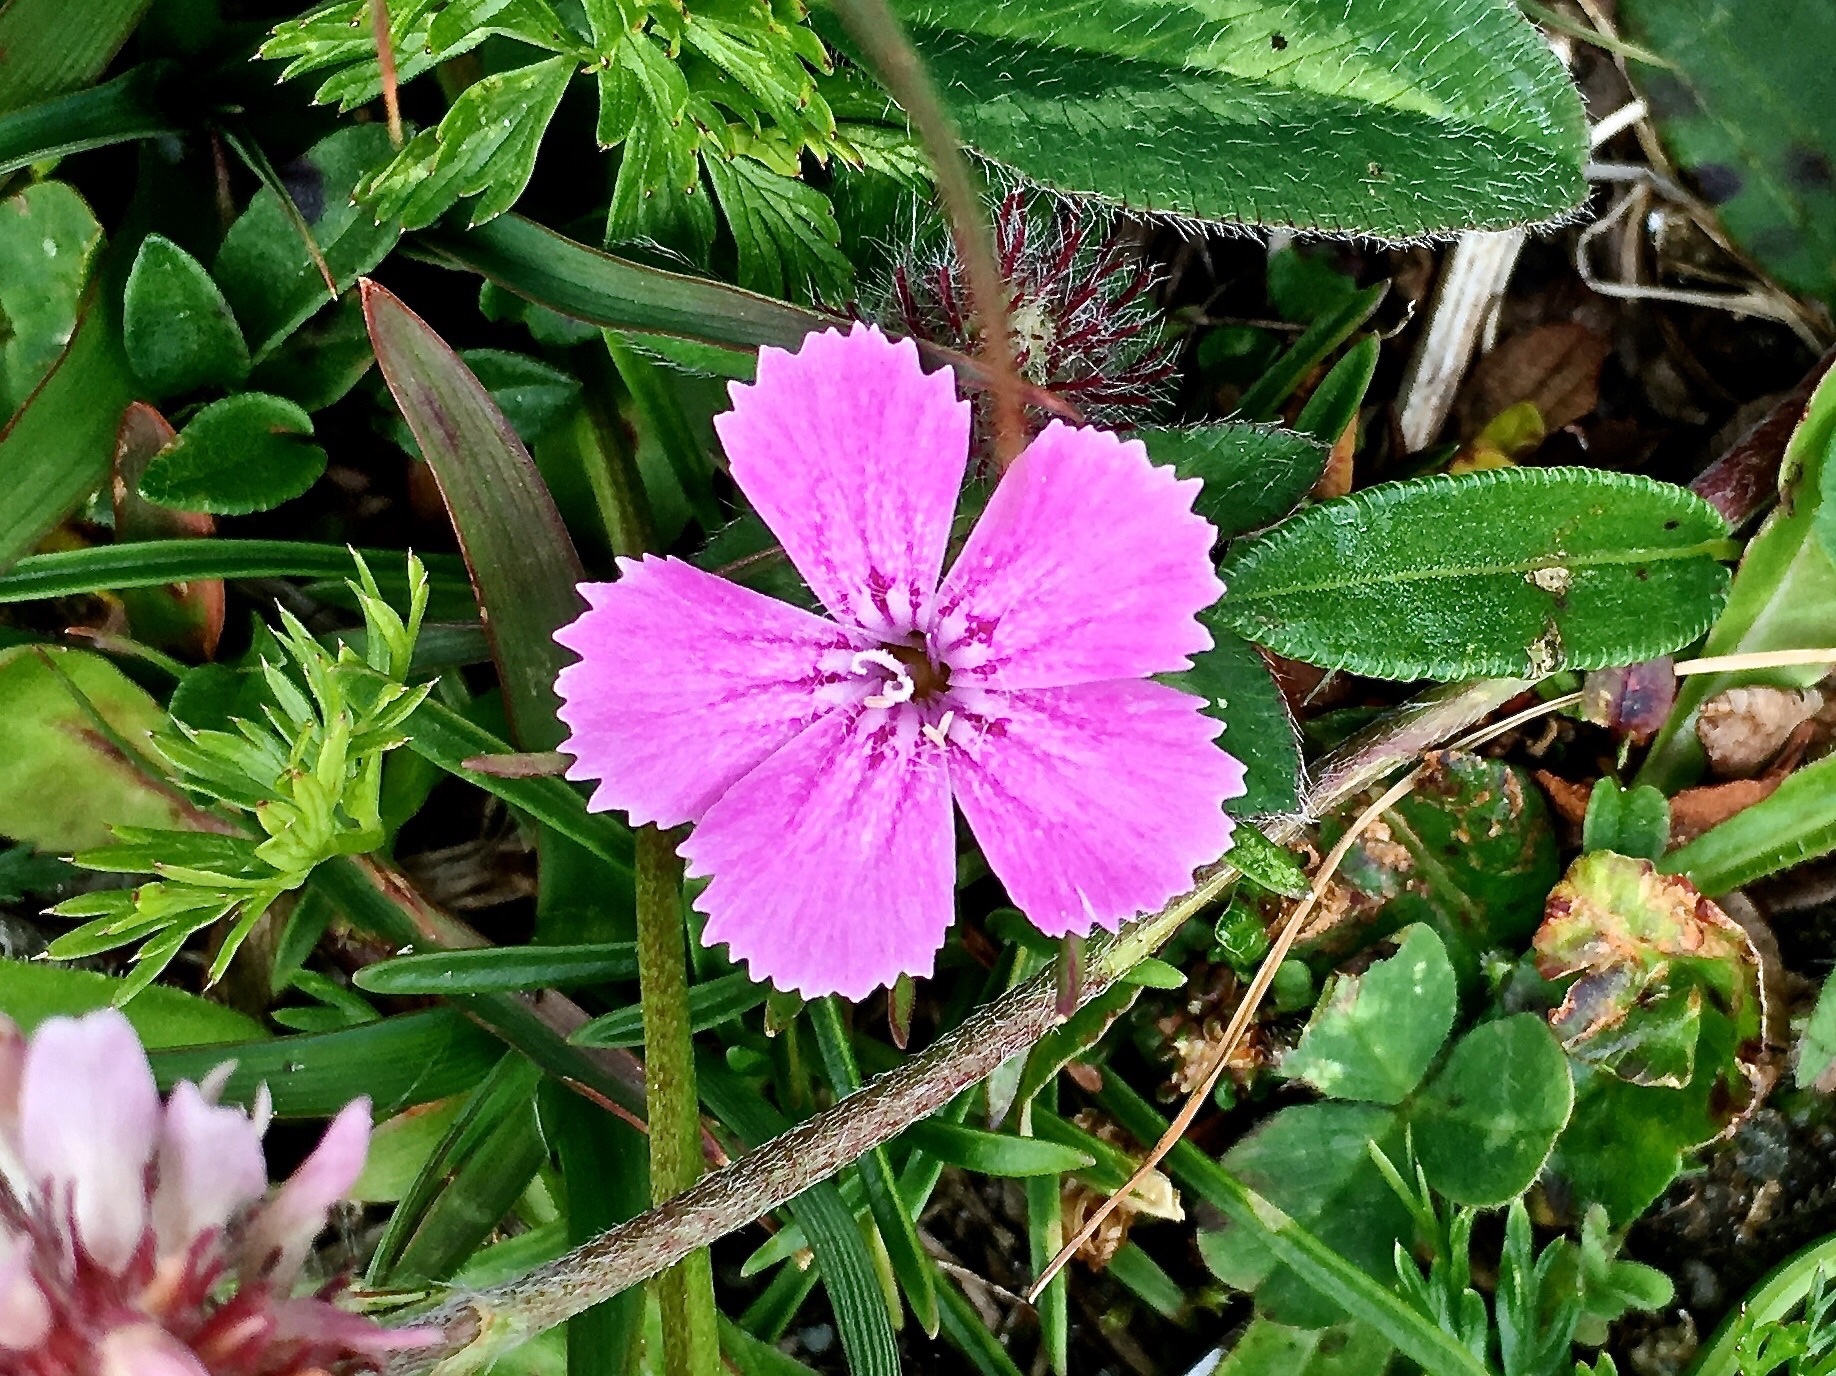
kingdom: Plantae
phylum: Tracheophyta
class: Magnoliopsida
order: Caryophyllales
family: Caryophyllaceae
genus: Dianthus
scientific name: Dianthus glacialis
